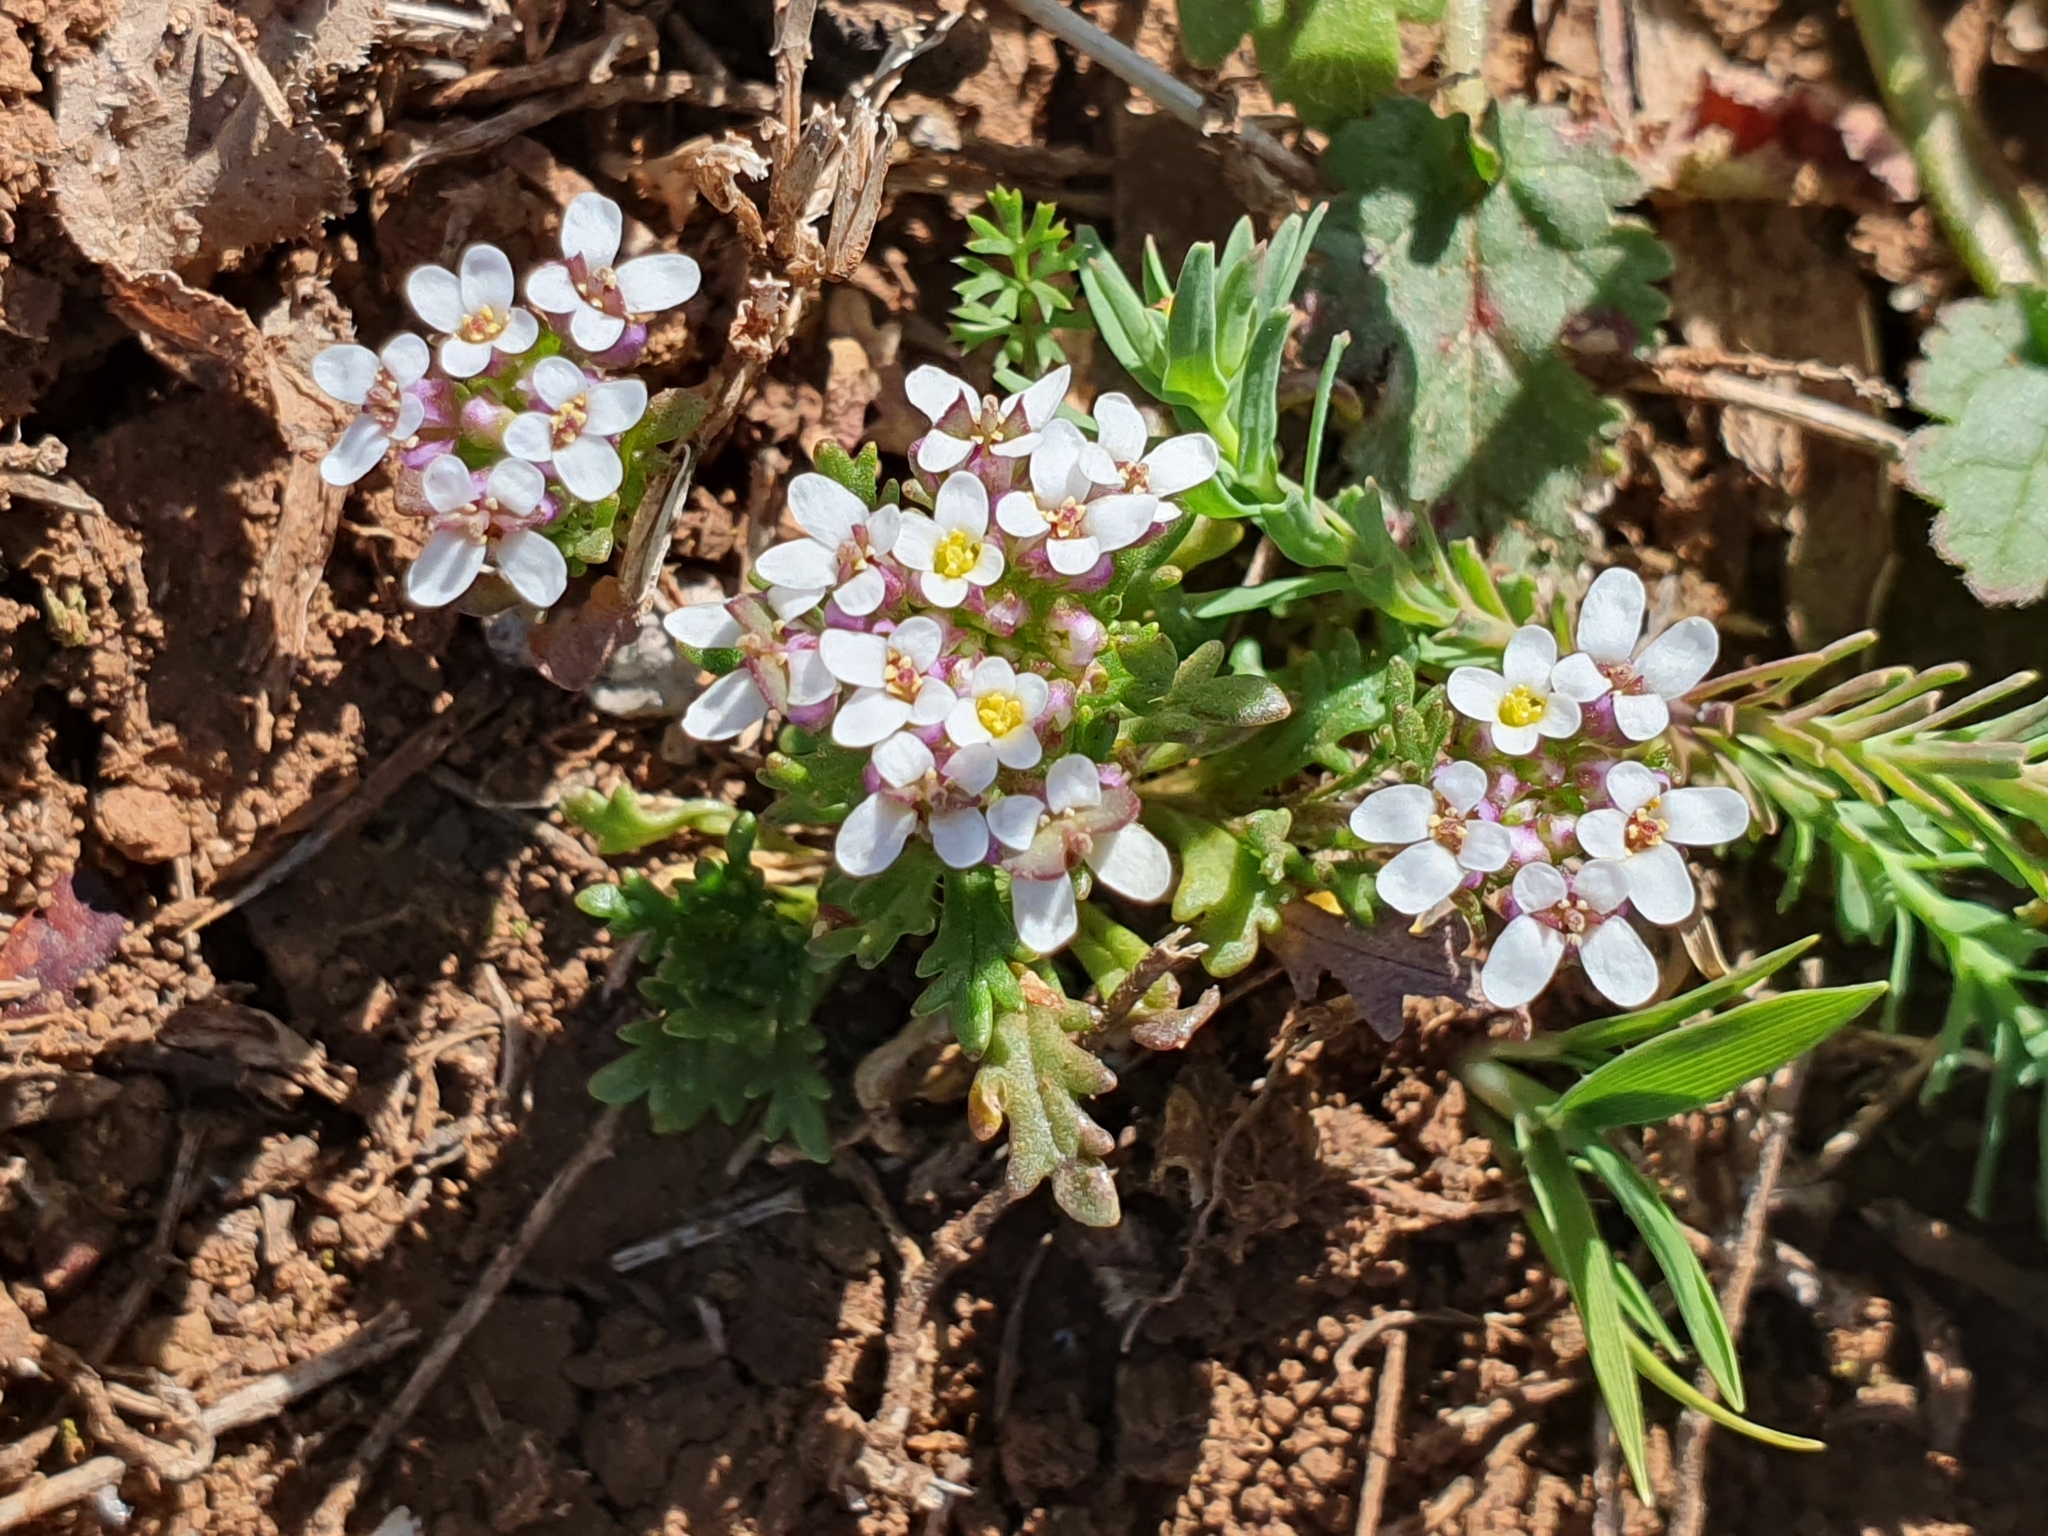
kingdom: Plantae
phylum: Tracheophyta
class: Magnoliopsida
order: Brassicales
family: Brassicaceae
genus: Iberis
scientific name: Iberis odorata
